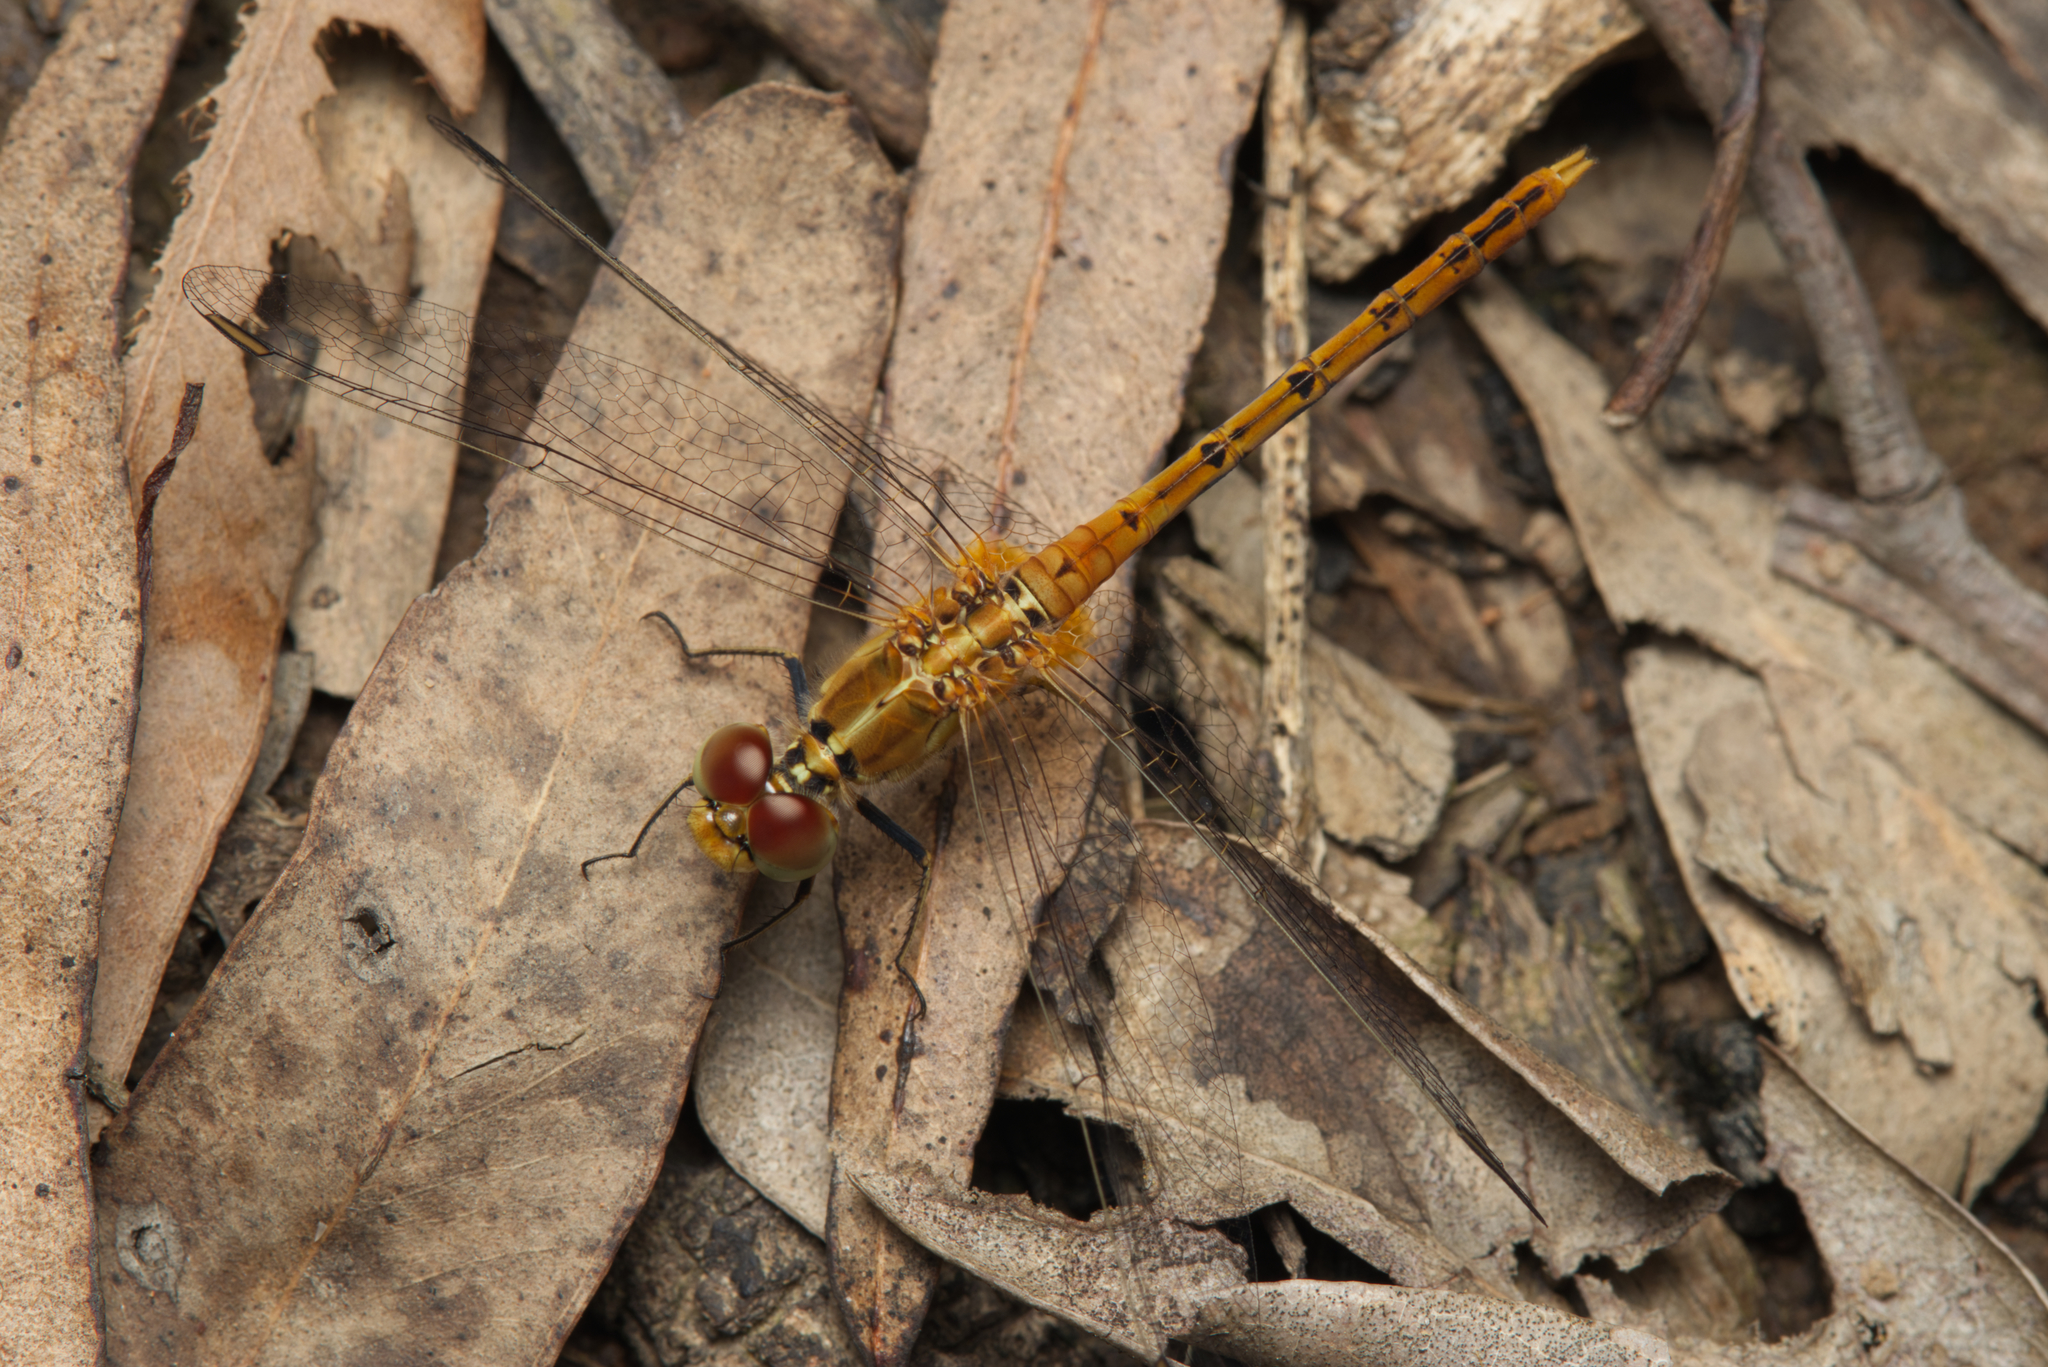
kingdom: Animalia
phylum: Arthropoda
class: Insecta
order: Odonata
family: Libellulidae
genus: Diplacodes
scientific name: Diplacodes bipunctata
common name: Red percher dragonfly
